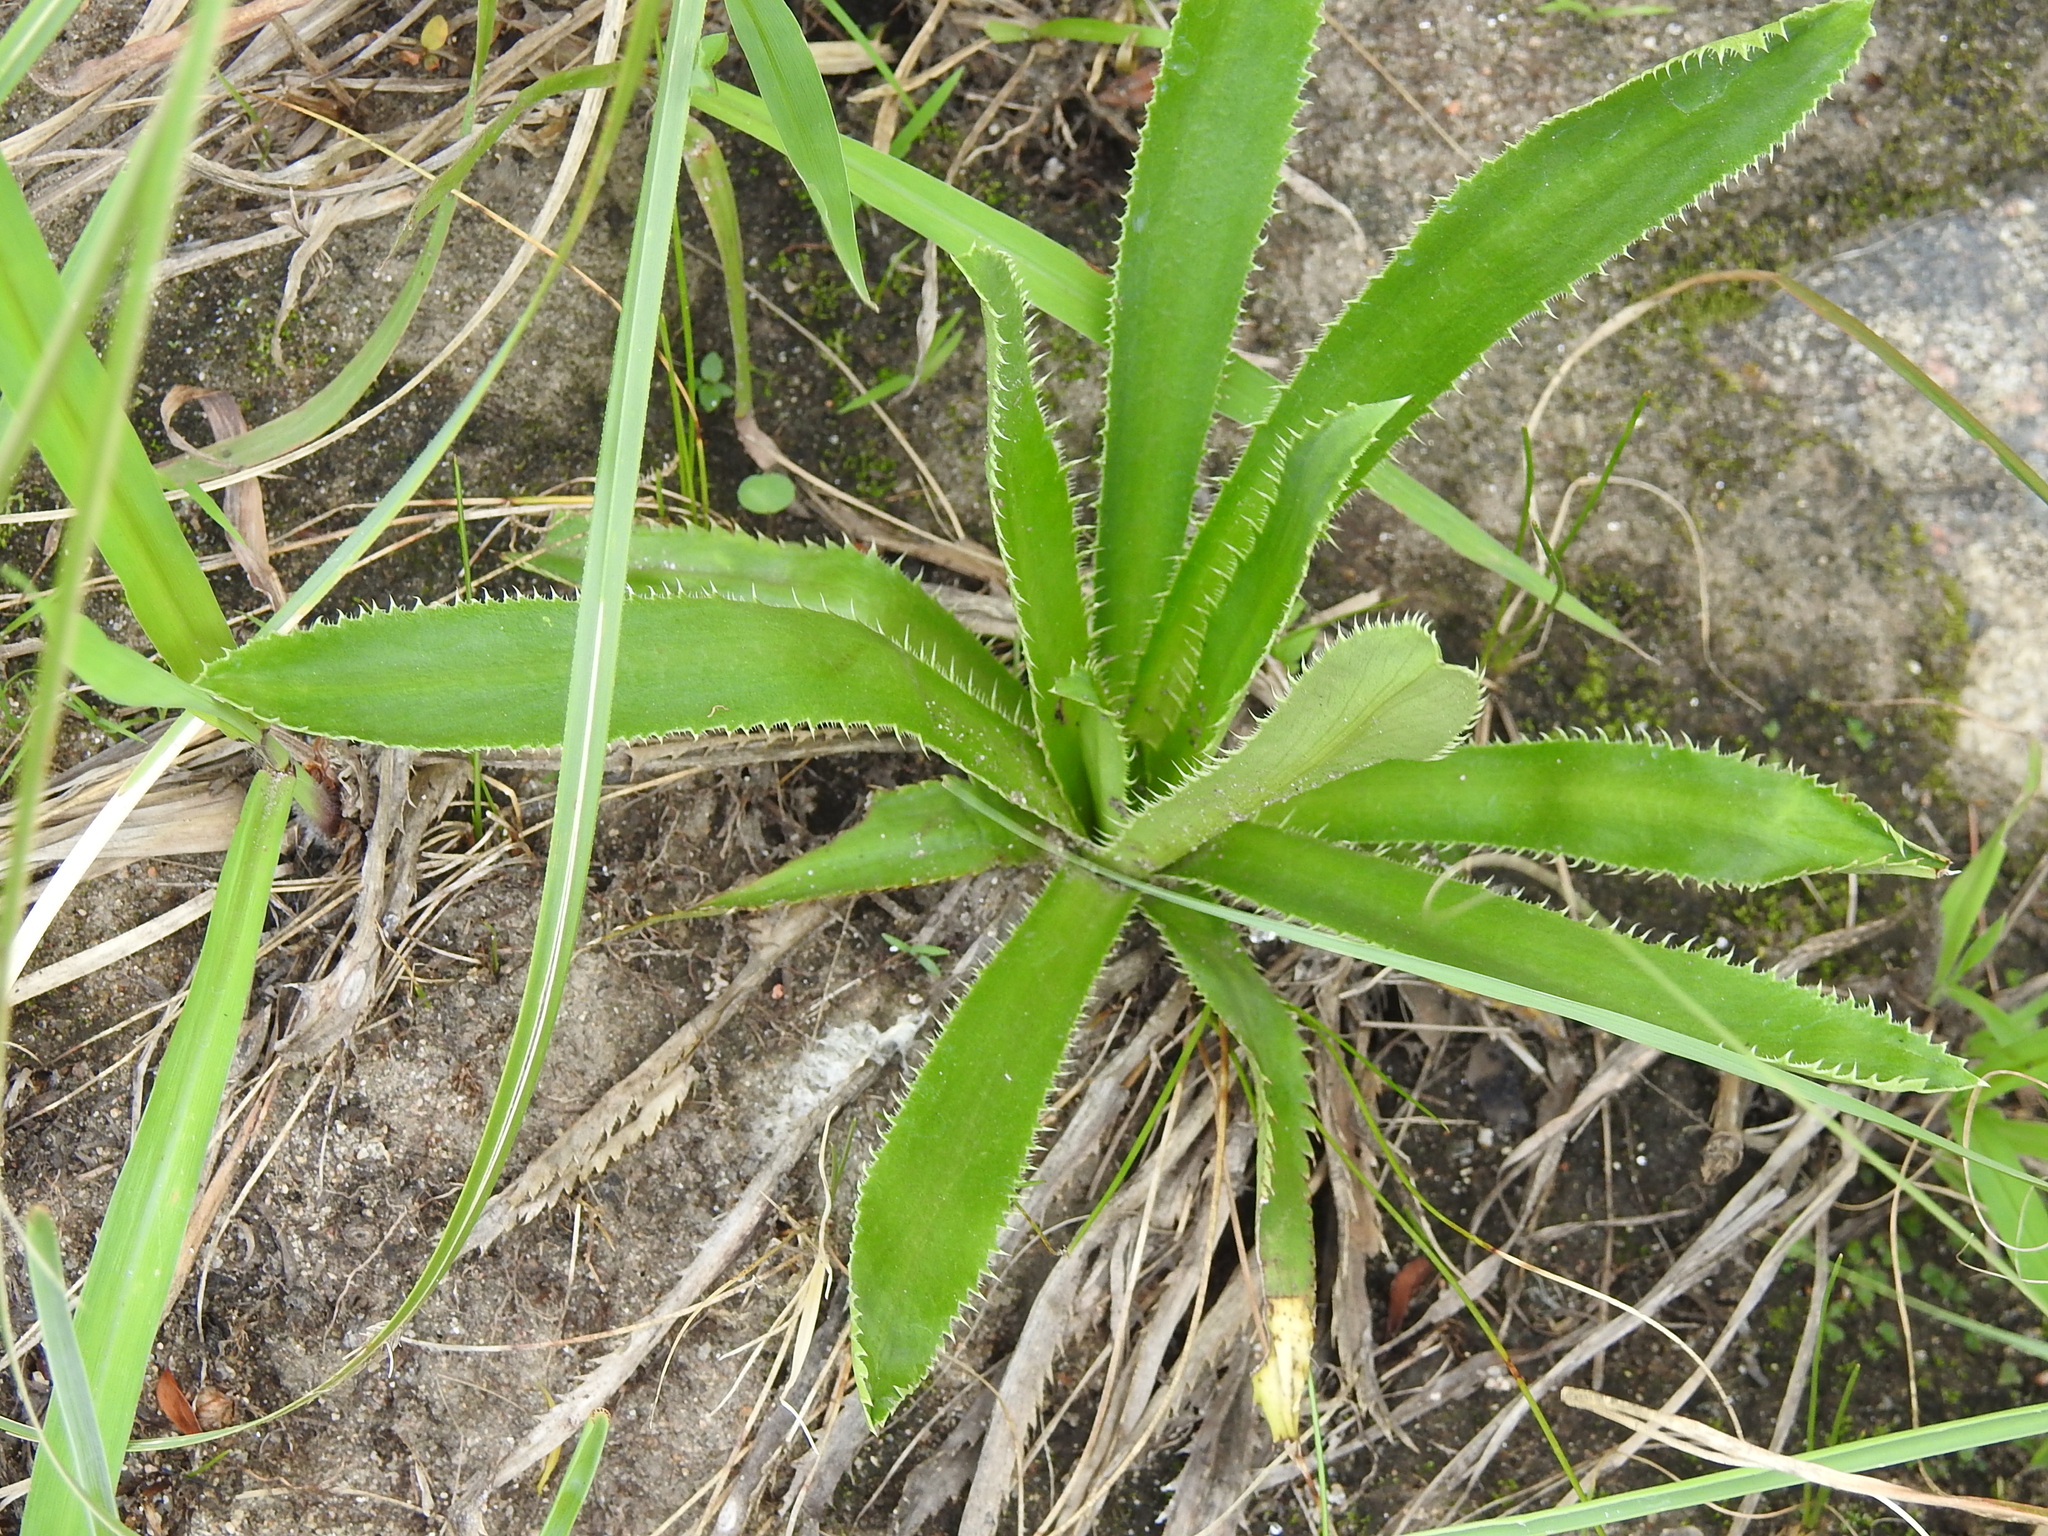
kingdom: Plantae
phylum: Tracheophyta
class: Magnoliopsida
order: Apiales
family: Apiaceae
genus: Eryngium
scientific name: Eryngium elegans
